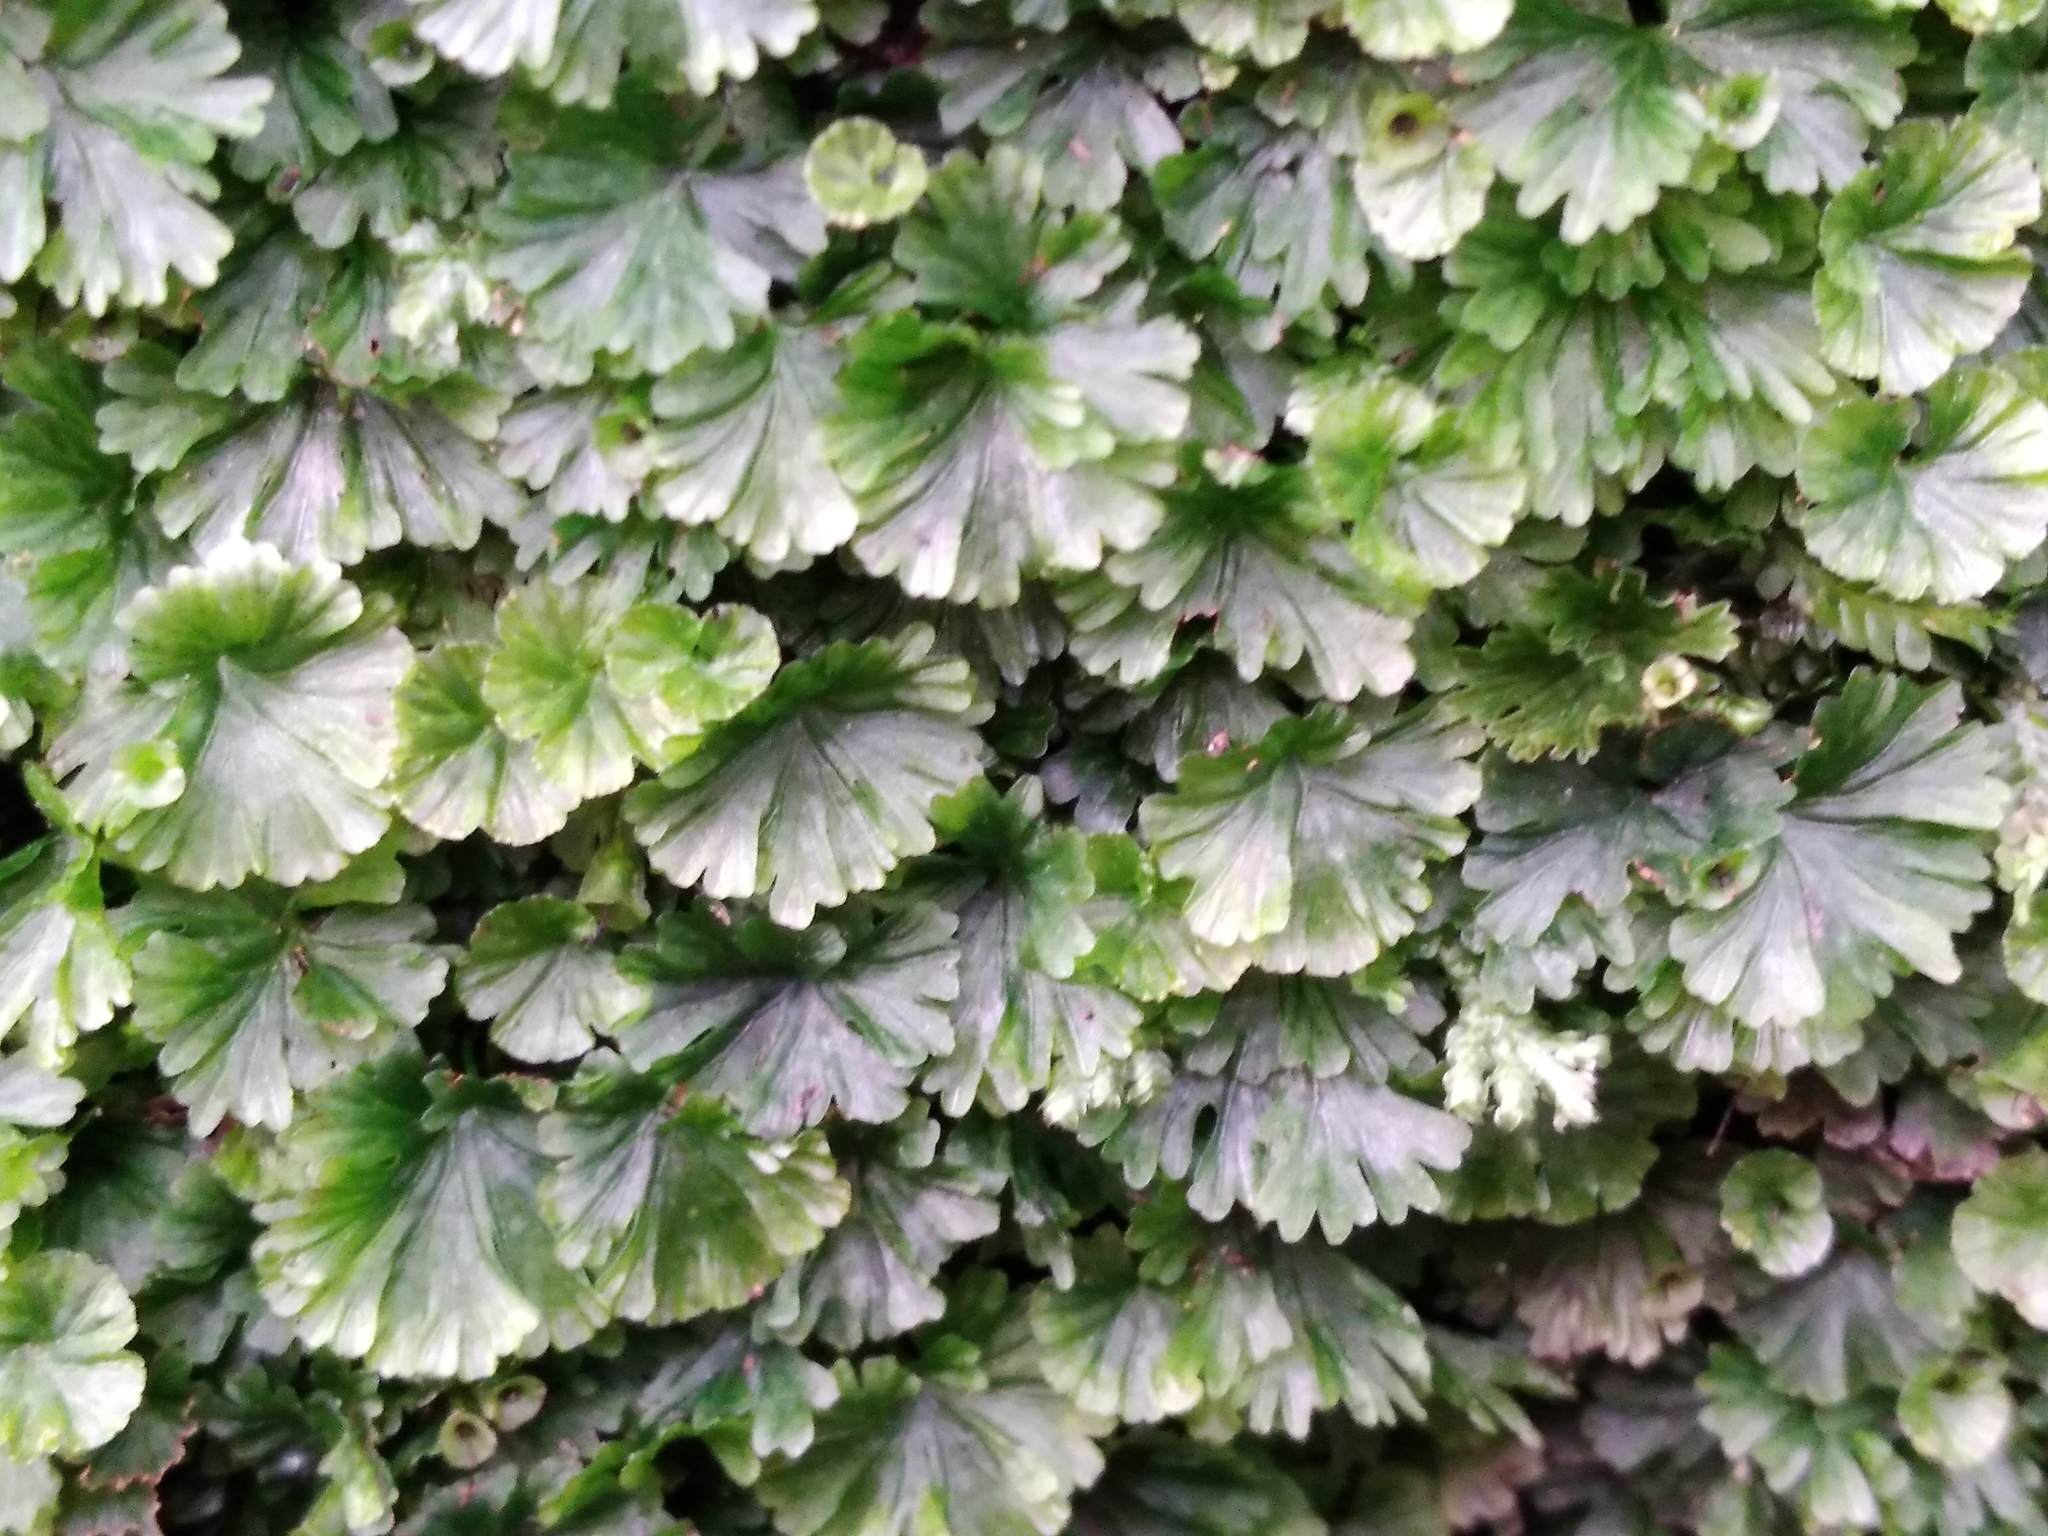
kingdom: Plantae
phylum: Tracheophyta
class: Polypodiopsida
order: Hymenophyllales
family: Hymenophyllaceae
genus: Crepidomanes
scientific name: Crepidomanes saxifragoides
